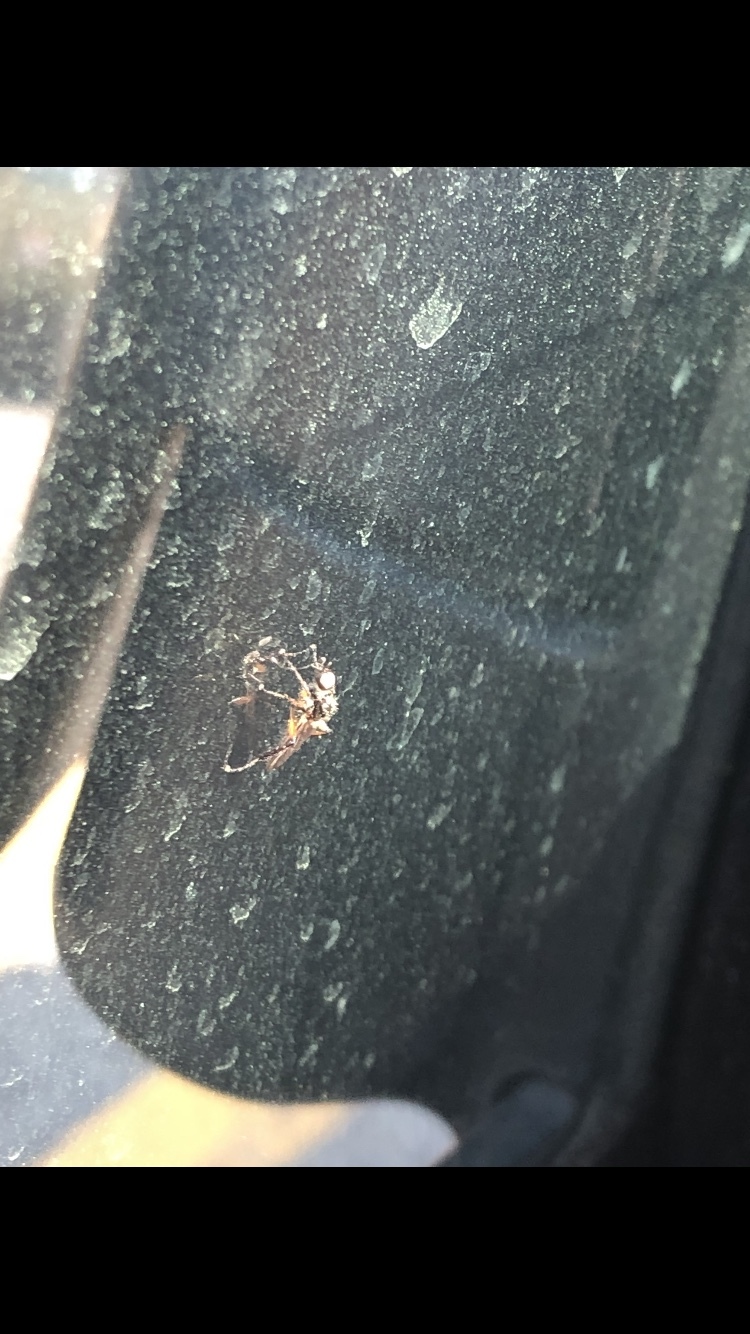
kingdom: Animalia
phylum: Arthropoda
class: Insecta
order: Diptera
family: Bibionidae
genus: Bibio
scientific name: Bibio
